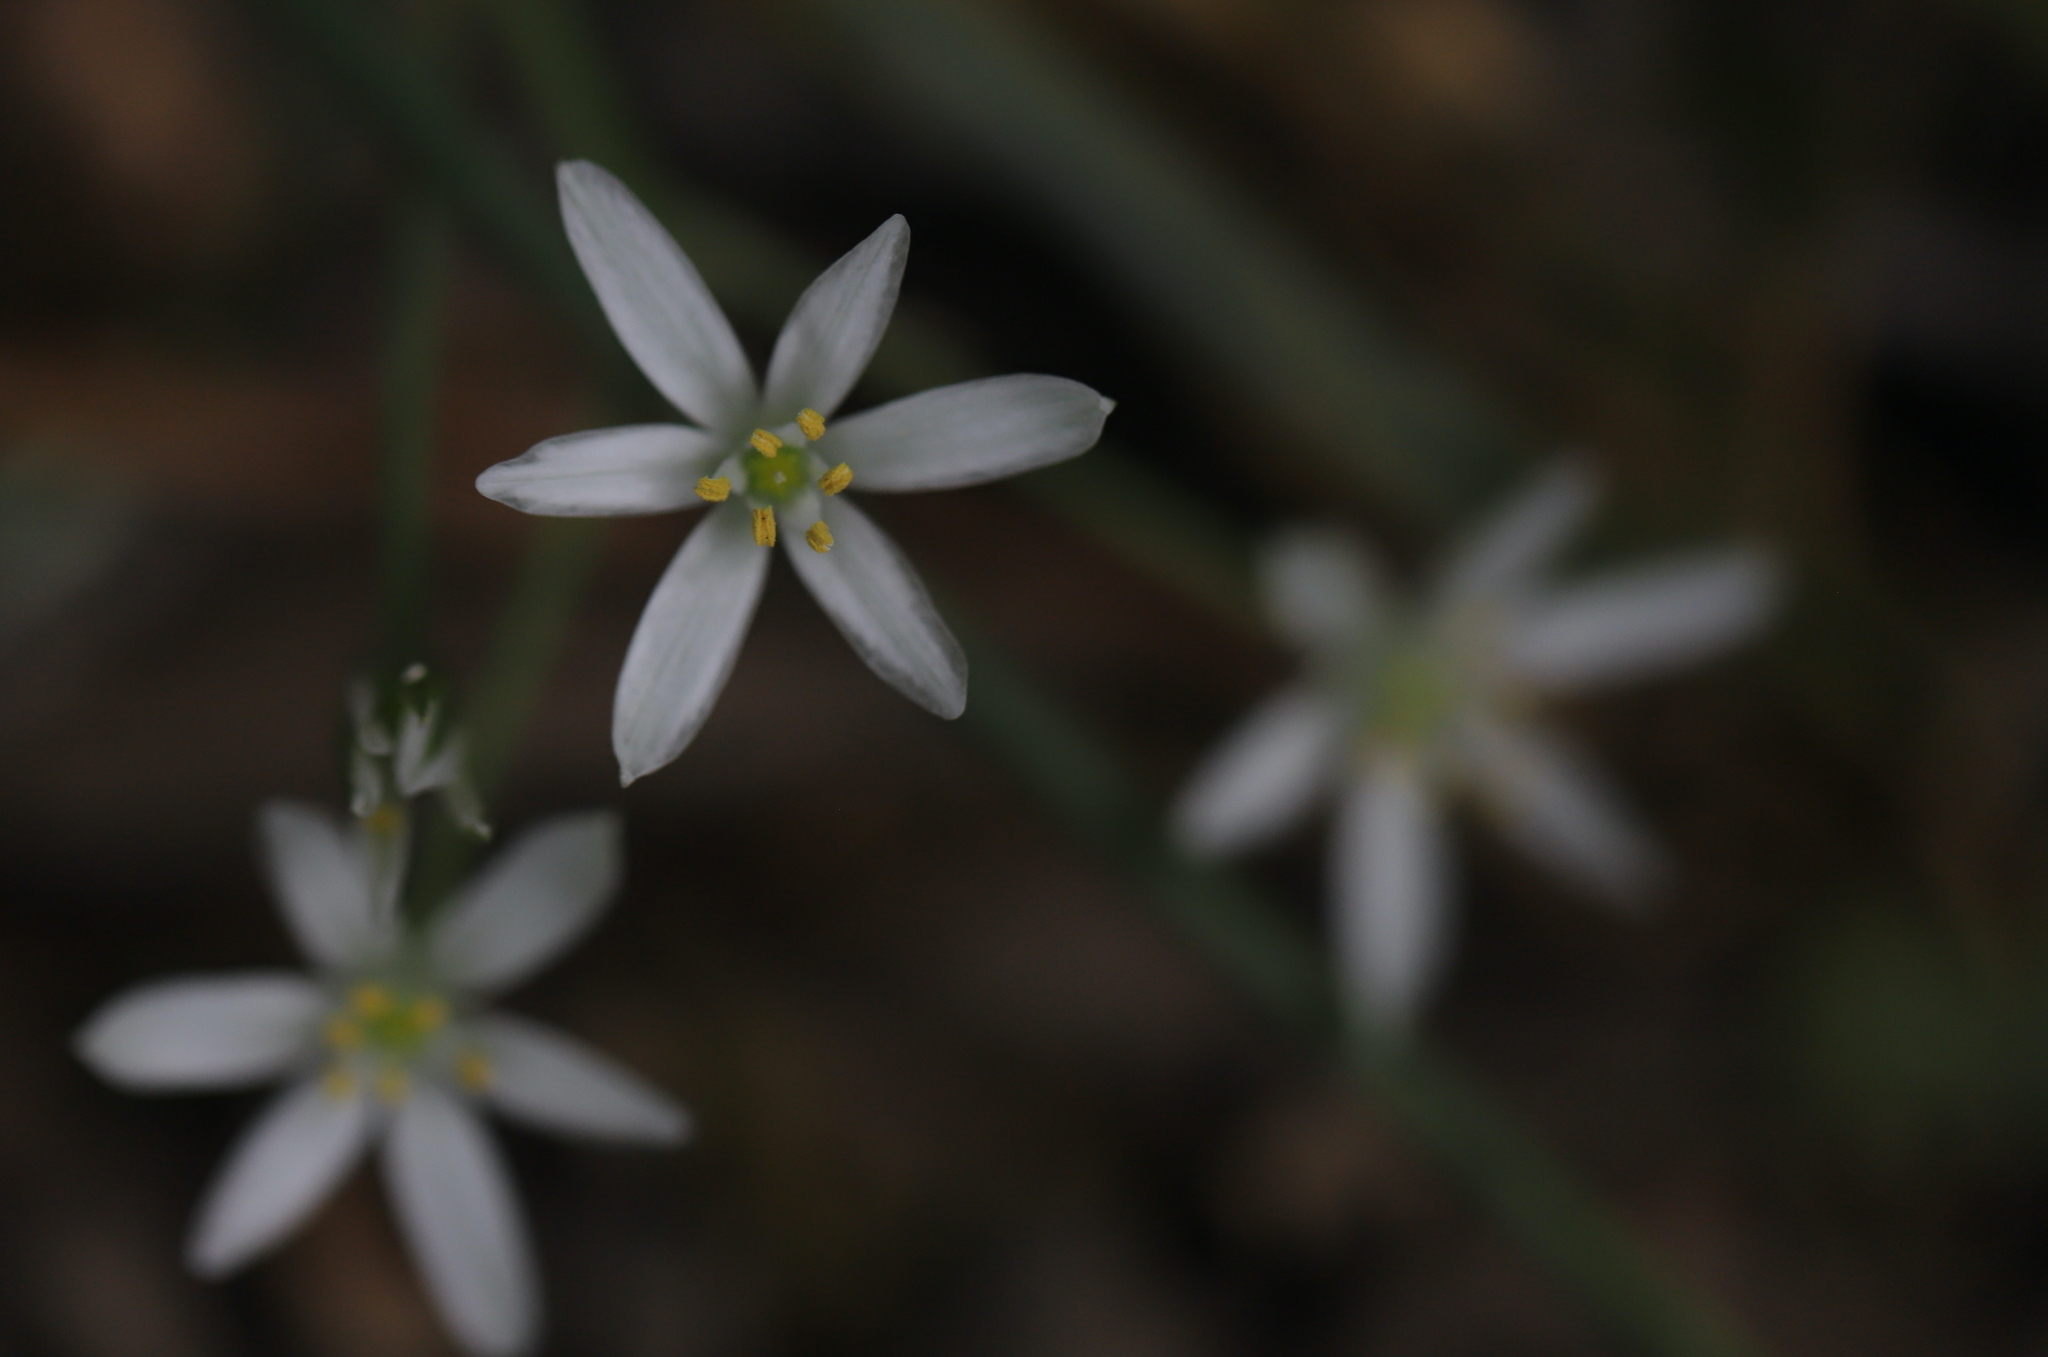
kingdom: Plantae
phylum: Tracheophyta
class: Liliopsida
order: Asparagales
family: Asparagaceae
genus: Ornithogalum
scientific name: Ornithogalum umbellatum
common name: Garden star-of-bethlehem
